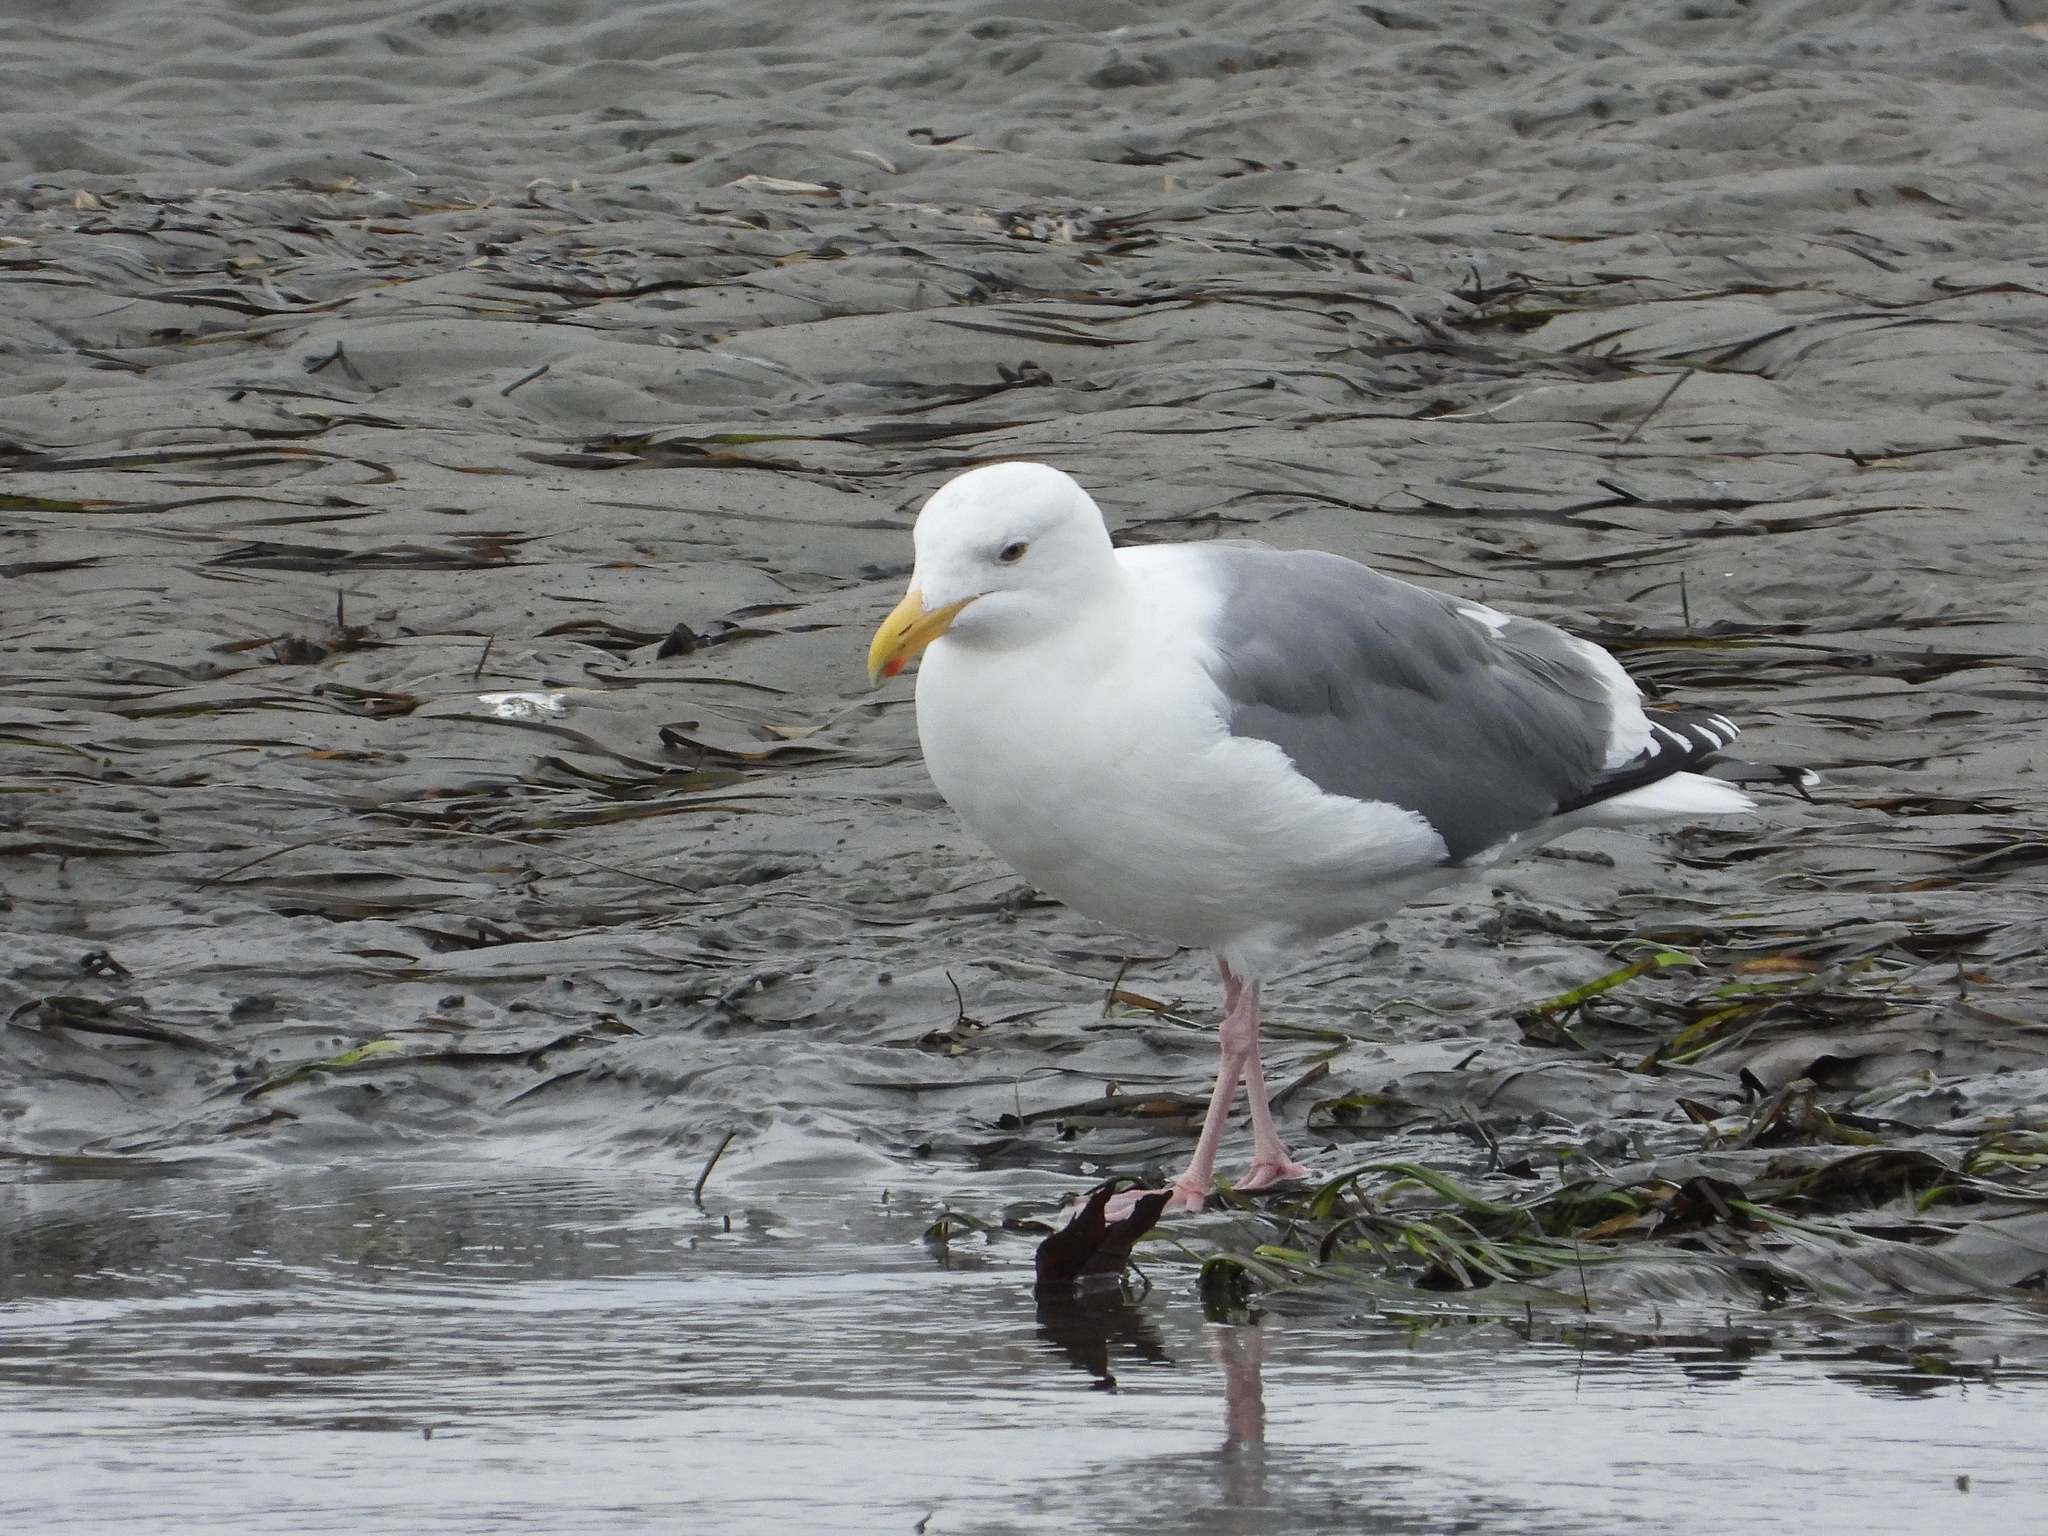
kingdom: Animalia
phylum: Chordata
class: Aves
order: Charadriiformes
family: Laridae
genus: Larus
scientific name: Larus occidentalis
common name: Western gull
